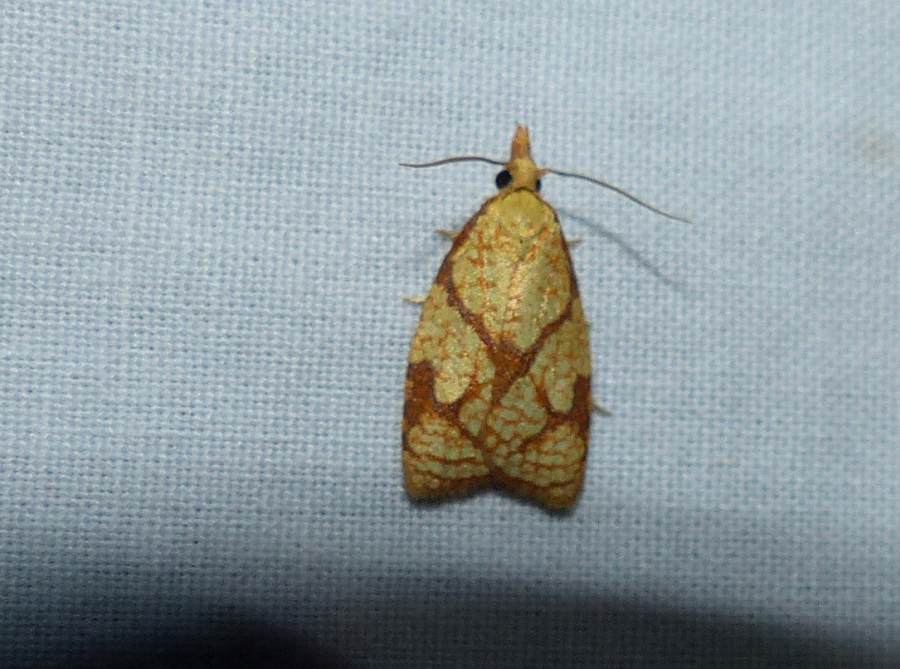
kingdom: Animalia
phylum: Arthropoda
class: Insecta
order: Lepidoptera
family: Tortricidae
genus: Cenopis
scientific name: Cenopis reticulatana
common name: Reticulated fruitworm moth
